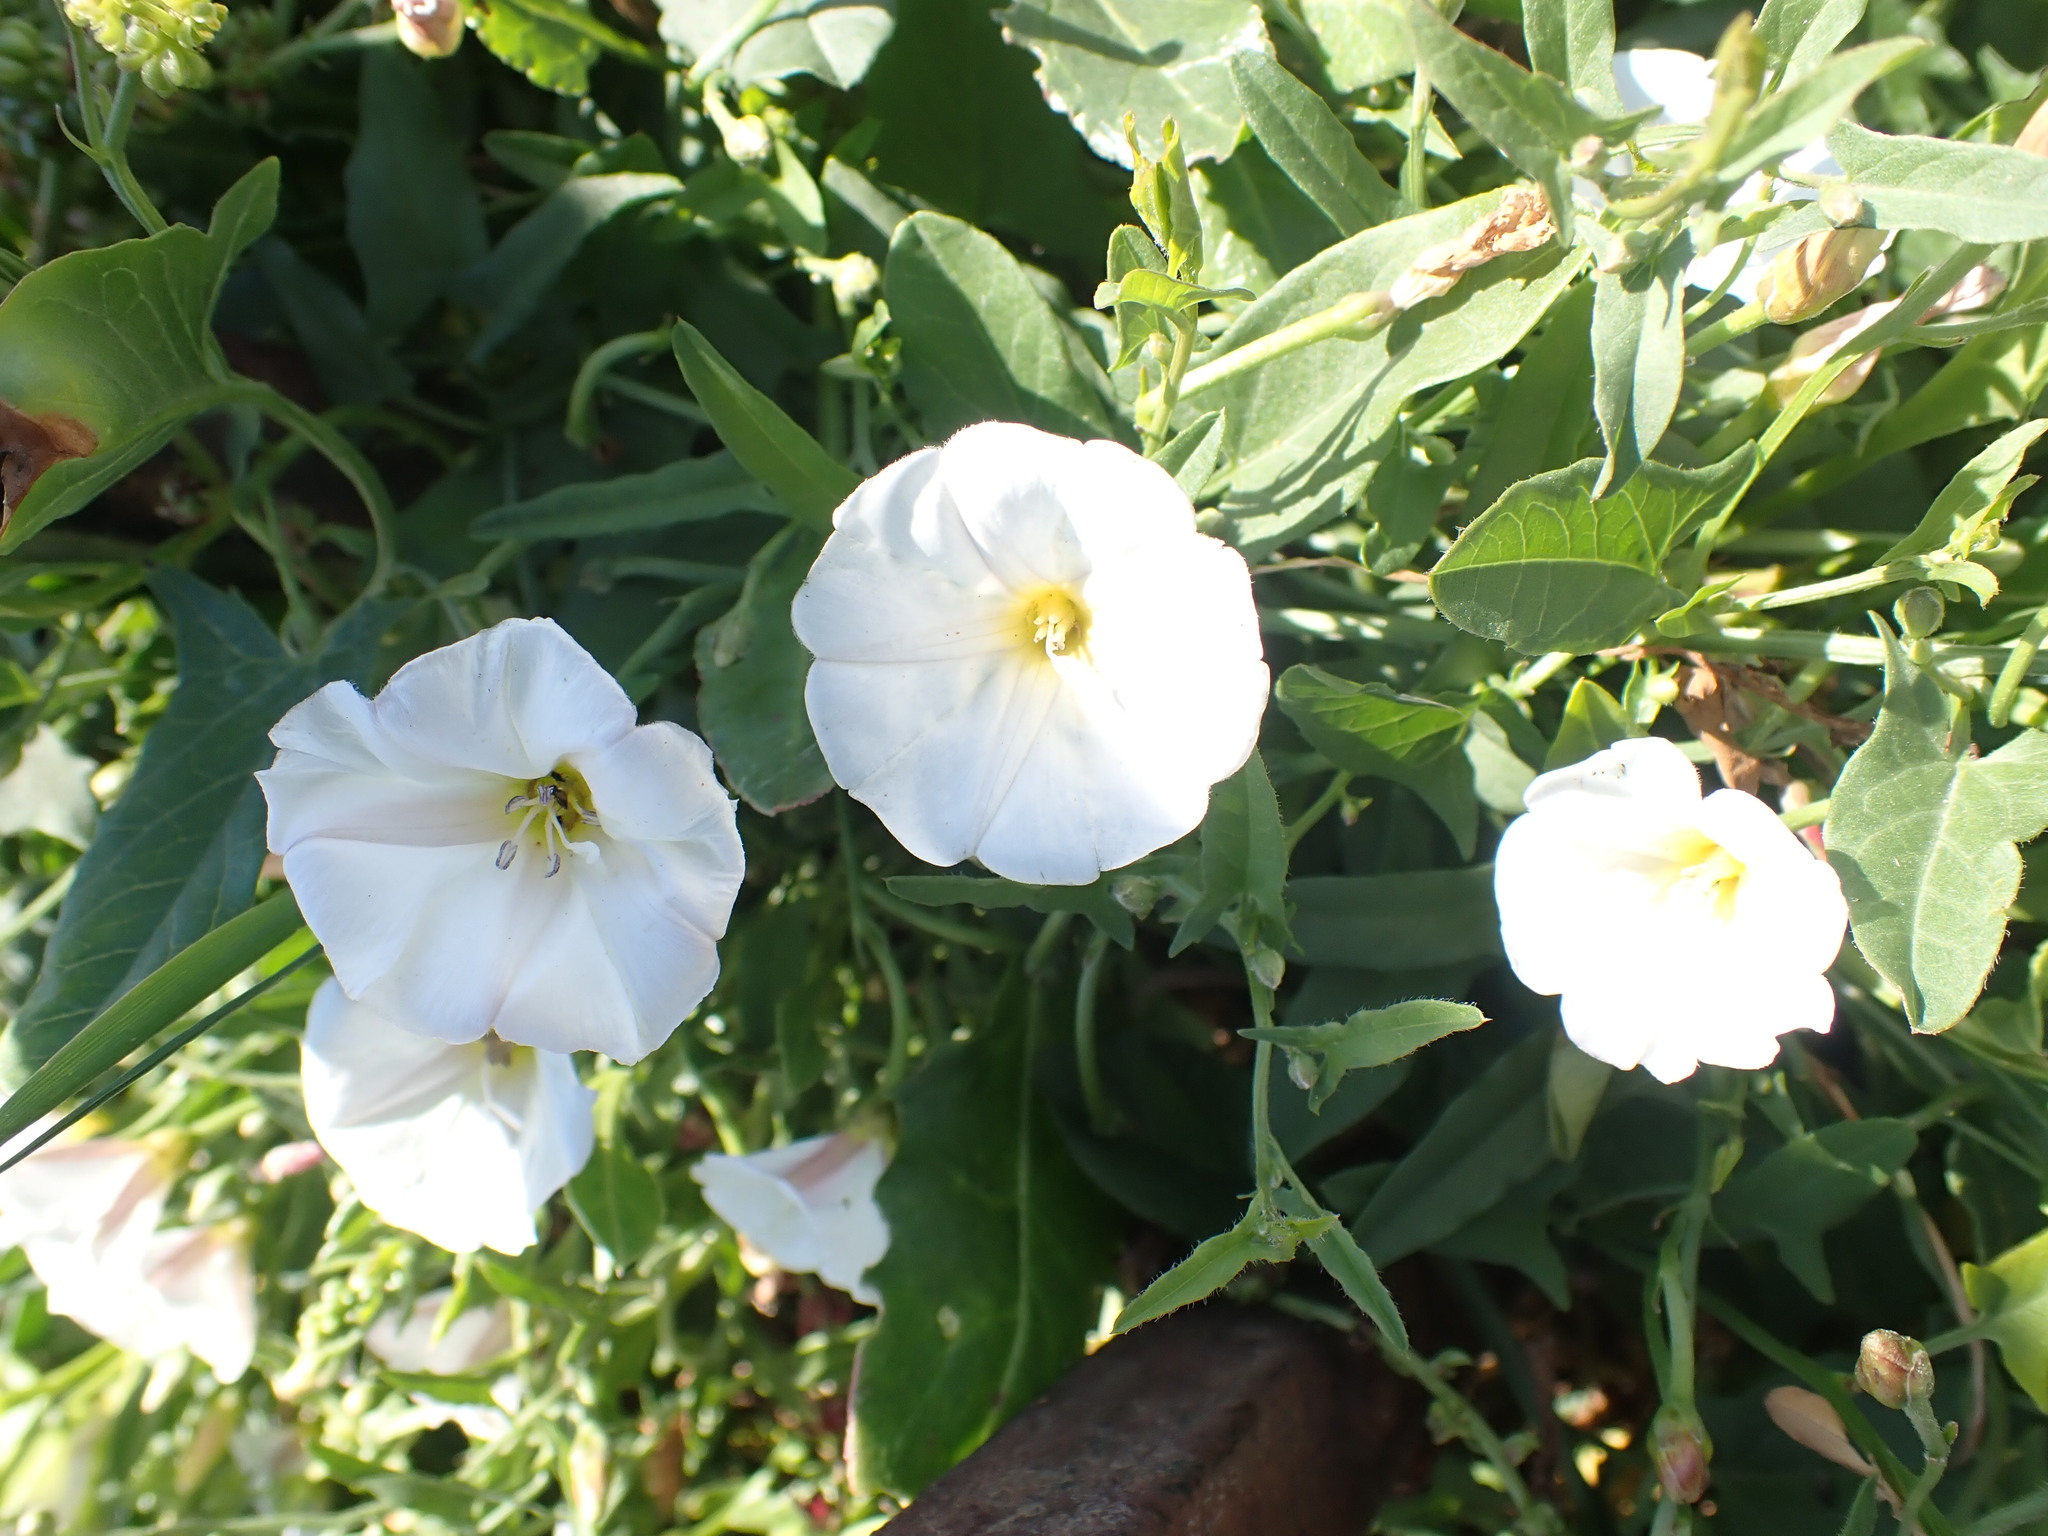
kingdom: Plantae
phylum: Tracheophyta
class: Magnoliopsida
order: Solanales
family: Convolvulaceae
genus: Convolvulus
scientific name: Convolvulus arvensis
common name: Field bindweed
